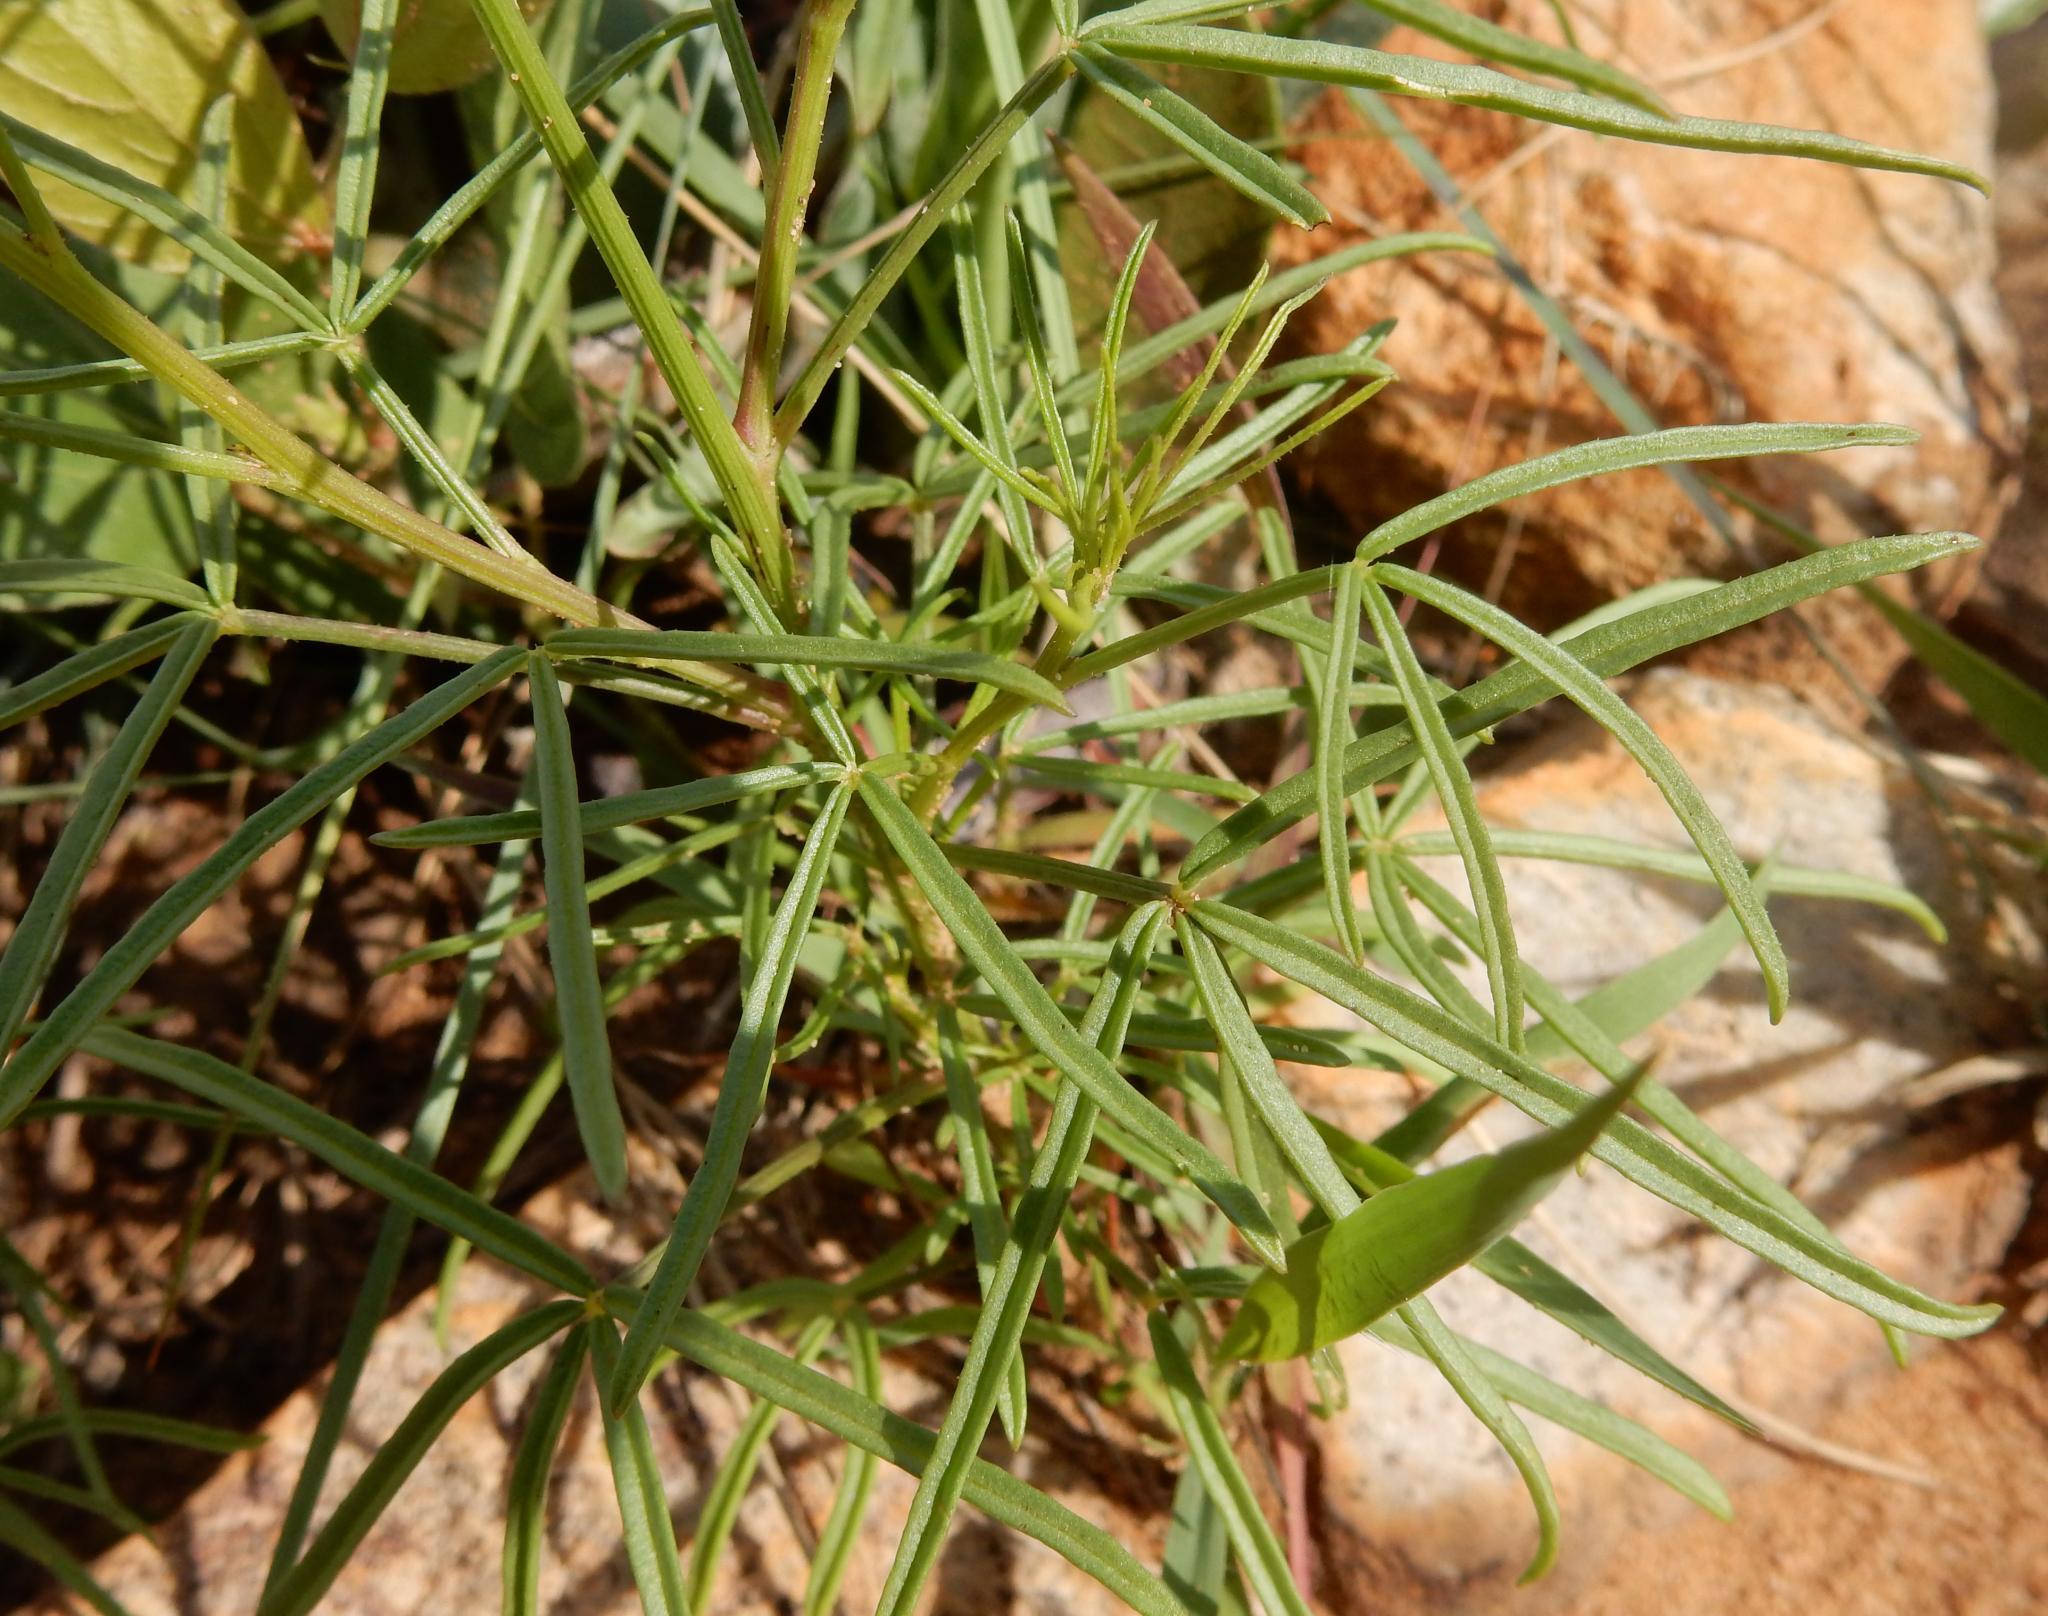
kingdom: Plantae
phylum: Tracheophyta
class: Magnoliopsida
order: Brassicales
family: Cleomaceae
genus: Sieruela
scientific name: Sieruela maculata
